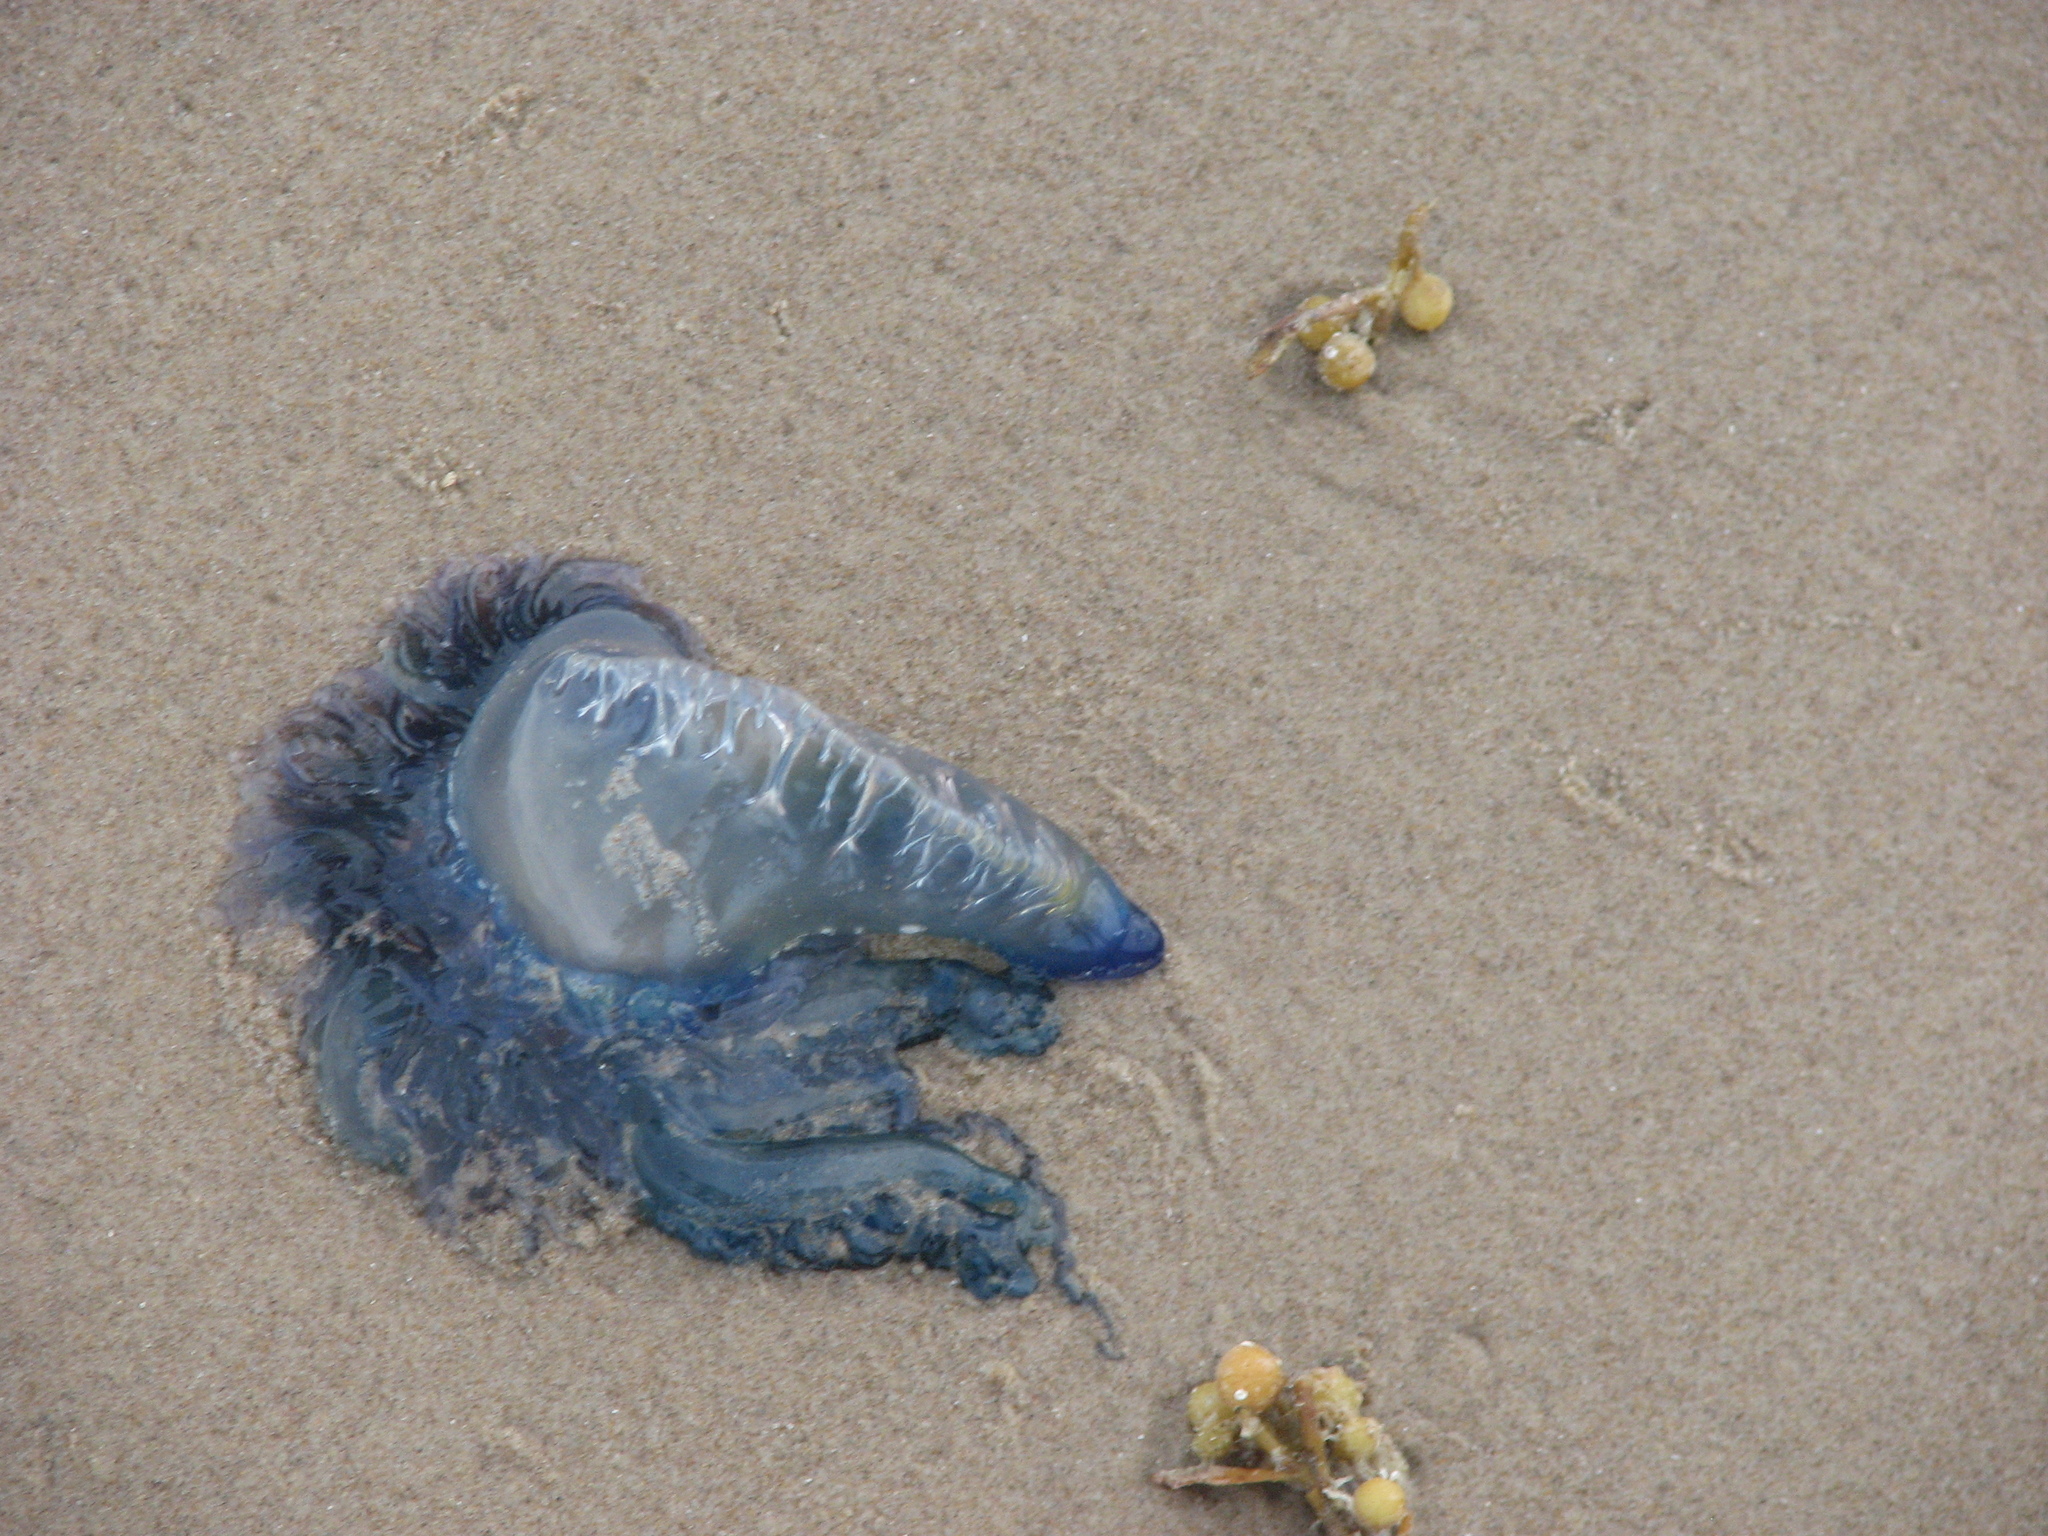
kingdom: Animalia
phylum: Cnidaria
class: Hydrozoa
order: Siphonophorae
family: Physaliidae
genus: Physalia
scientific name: Physalia physalis
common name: Portuguese man-of-war
